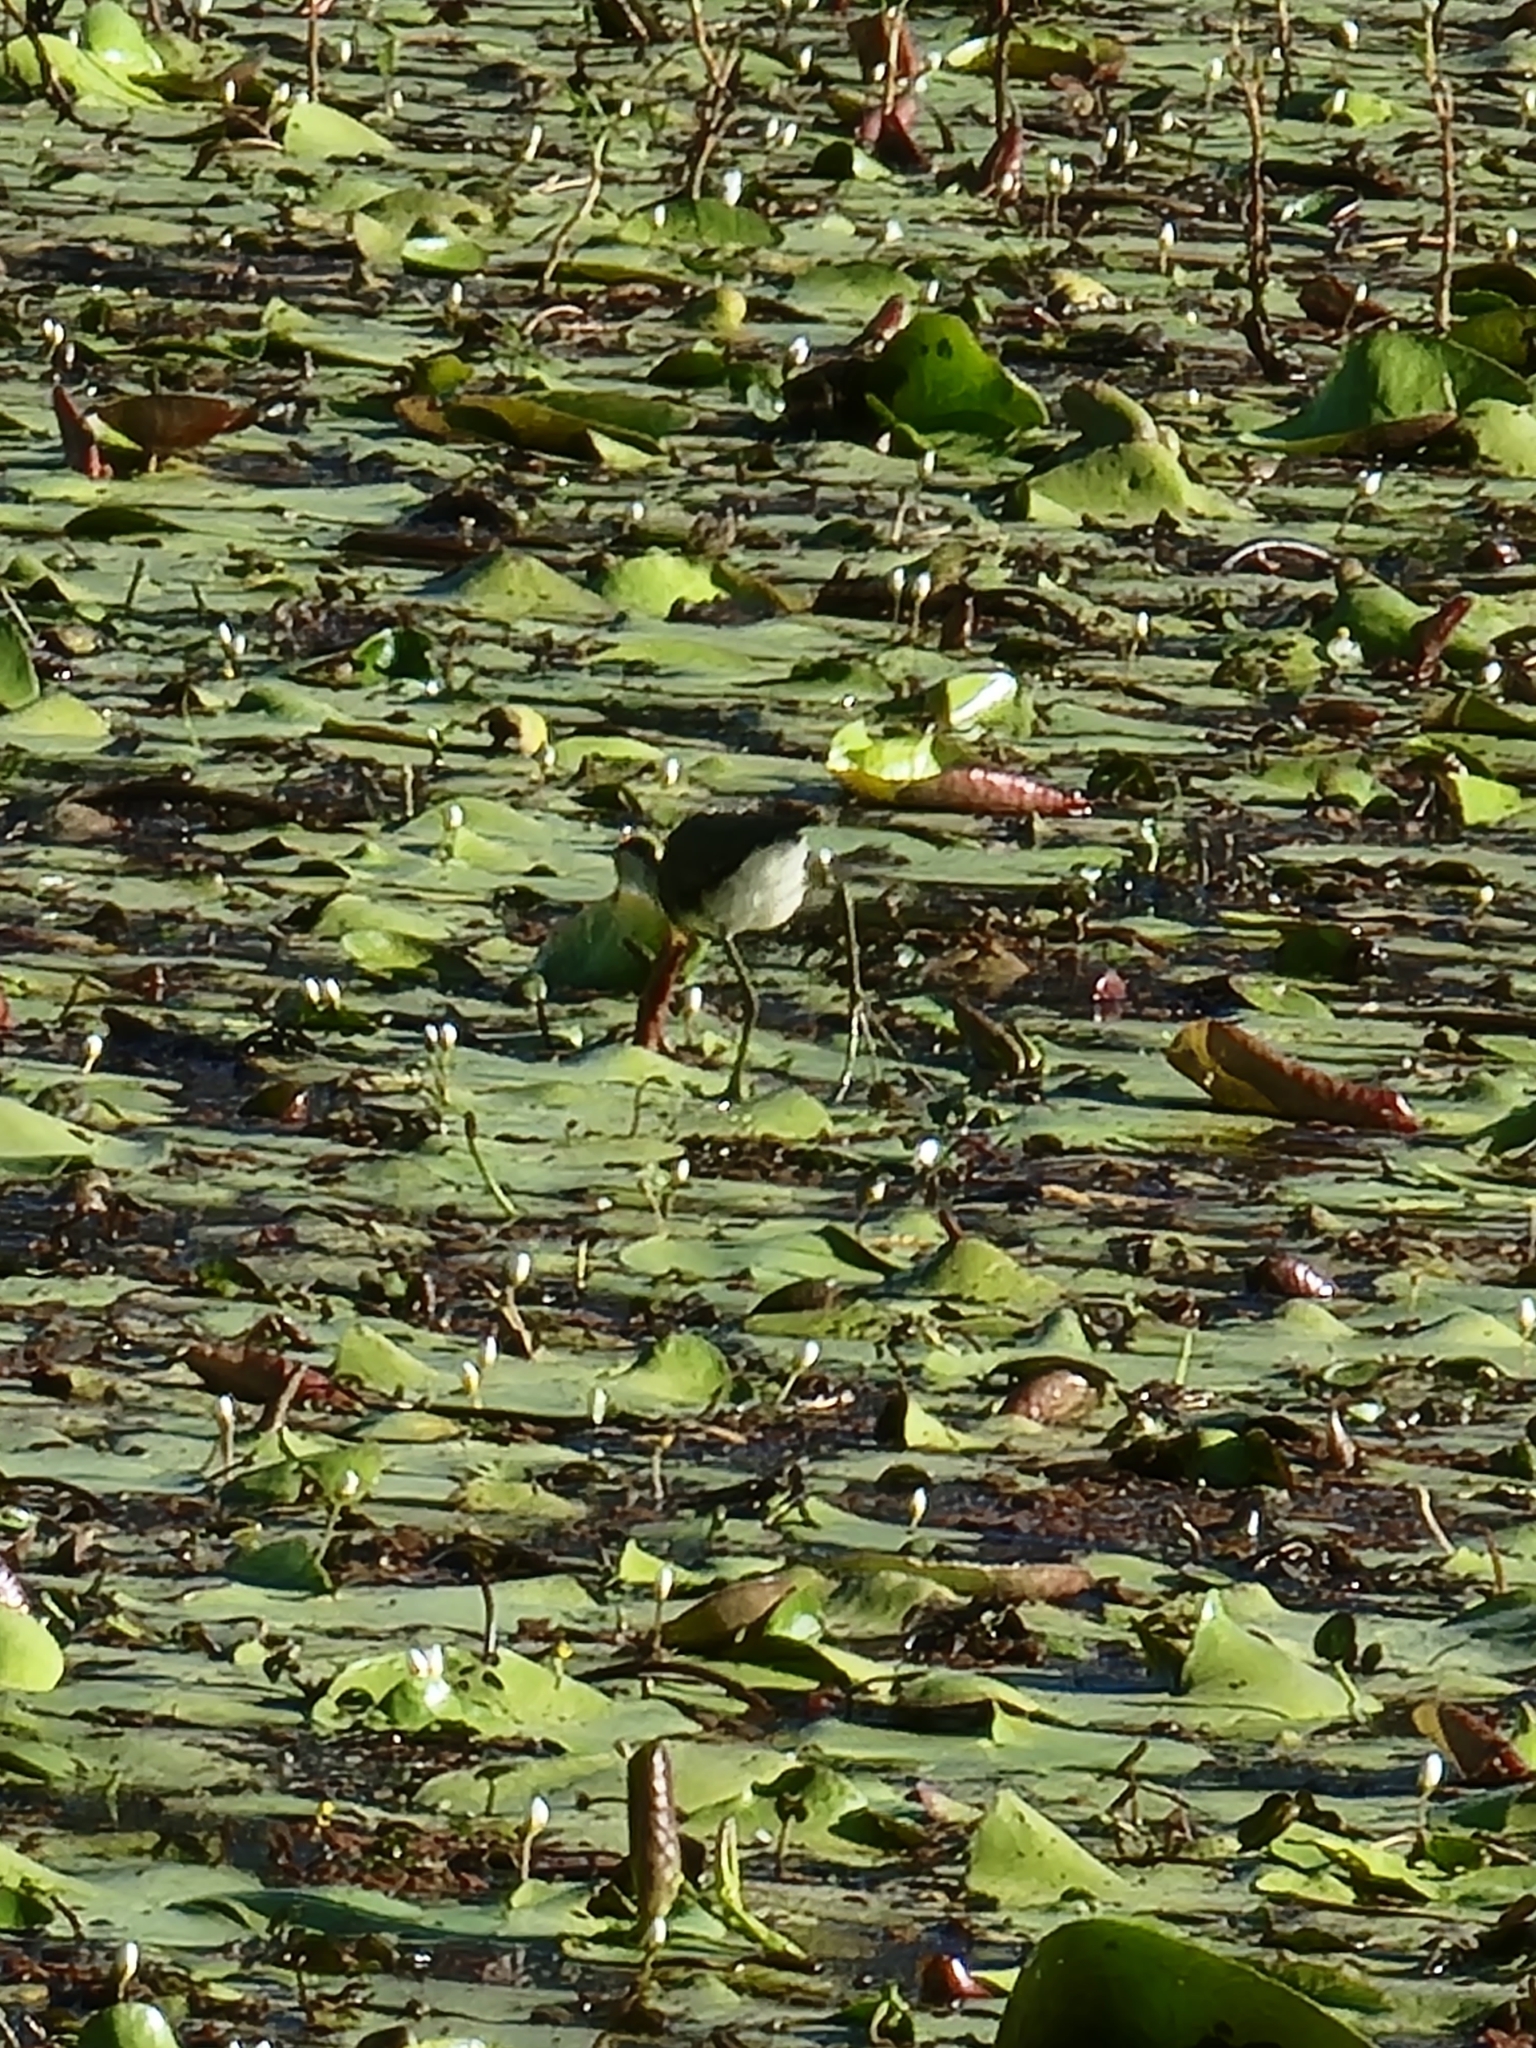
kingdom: Animalia
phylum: Chordata
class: Aves
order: Charadriiformes
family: Jacanidae
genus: Irediparra
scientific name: Irediparra gallinacea
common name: Comb-crested jacana
